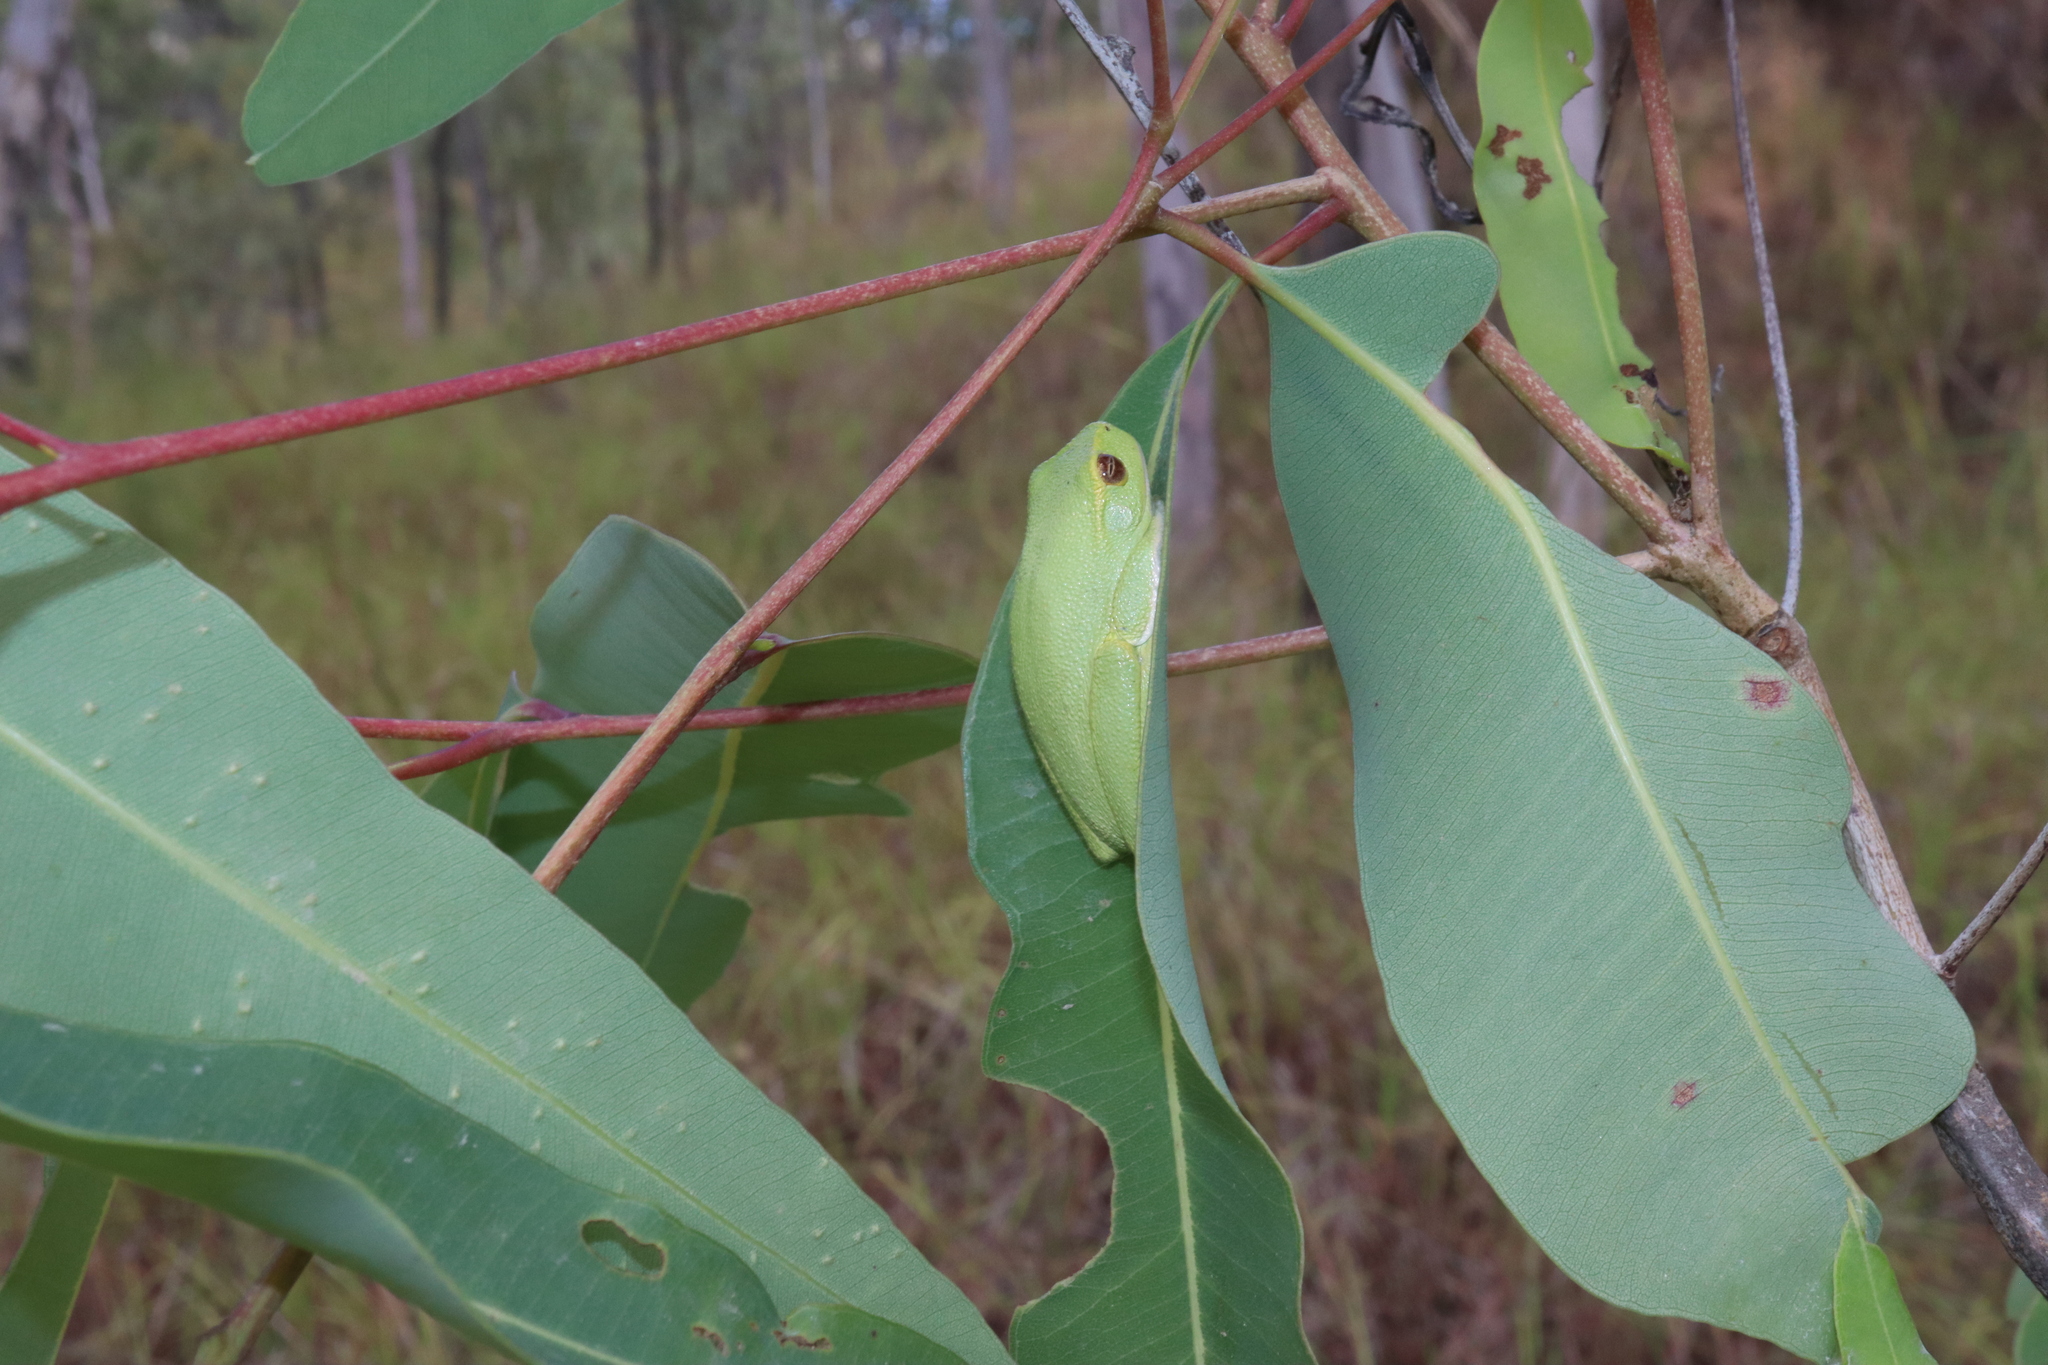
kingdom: Animalia
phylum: Chordata
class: Amphibia
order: Anura
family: Pelodryadidae
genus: Ranoidea
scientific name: Ranoidea gracilenta
